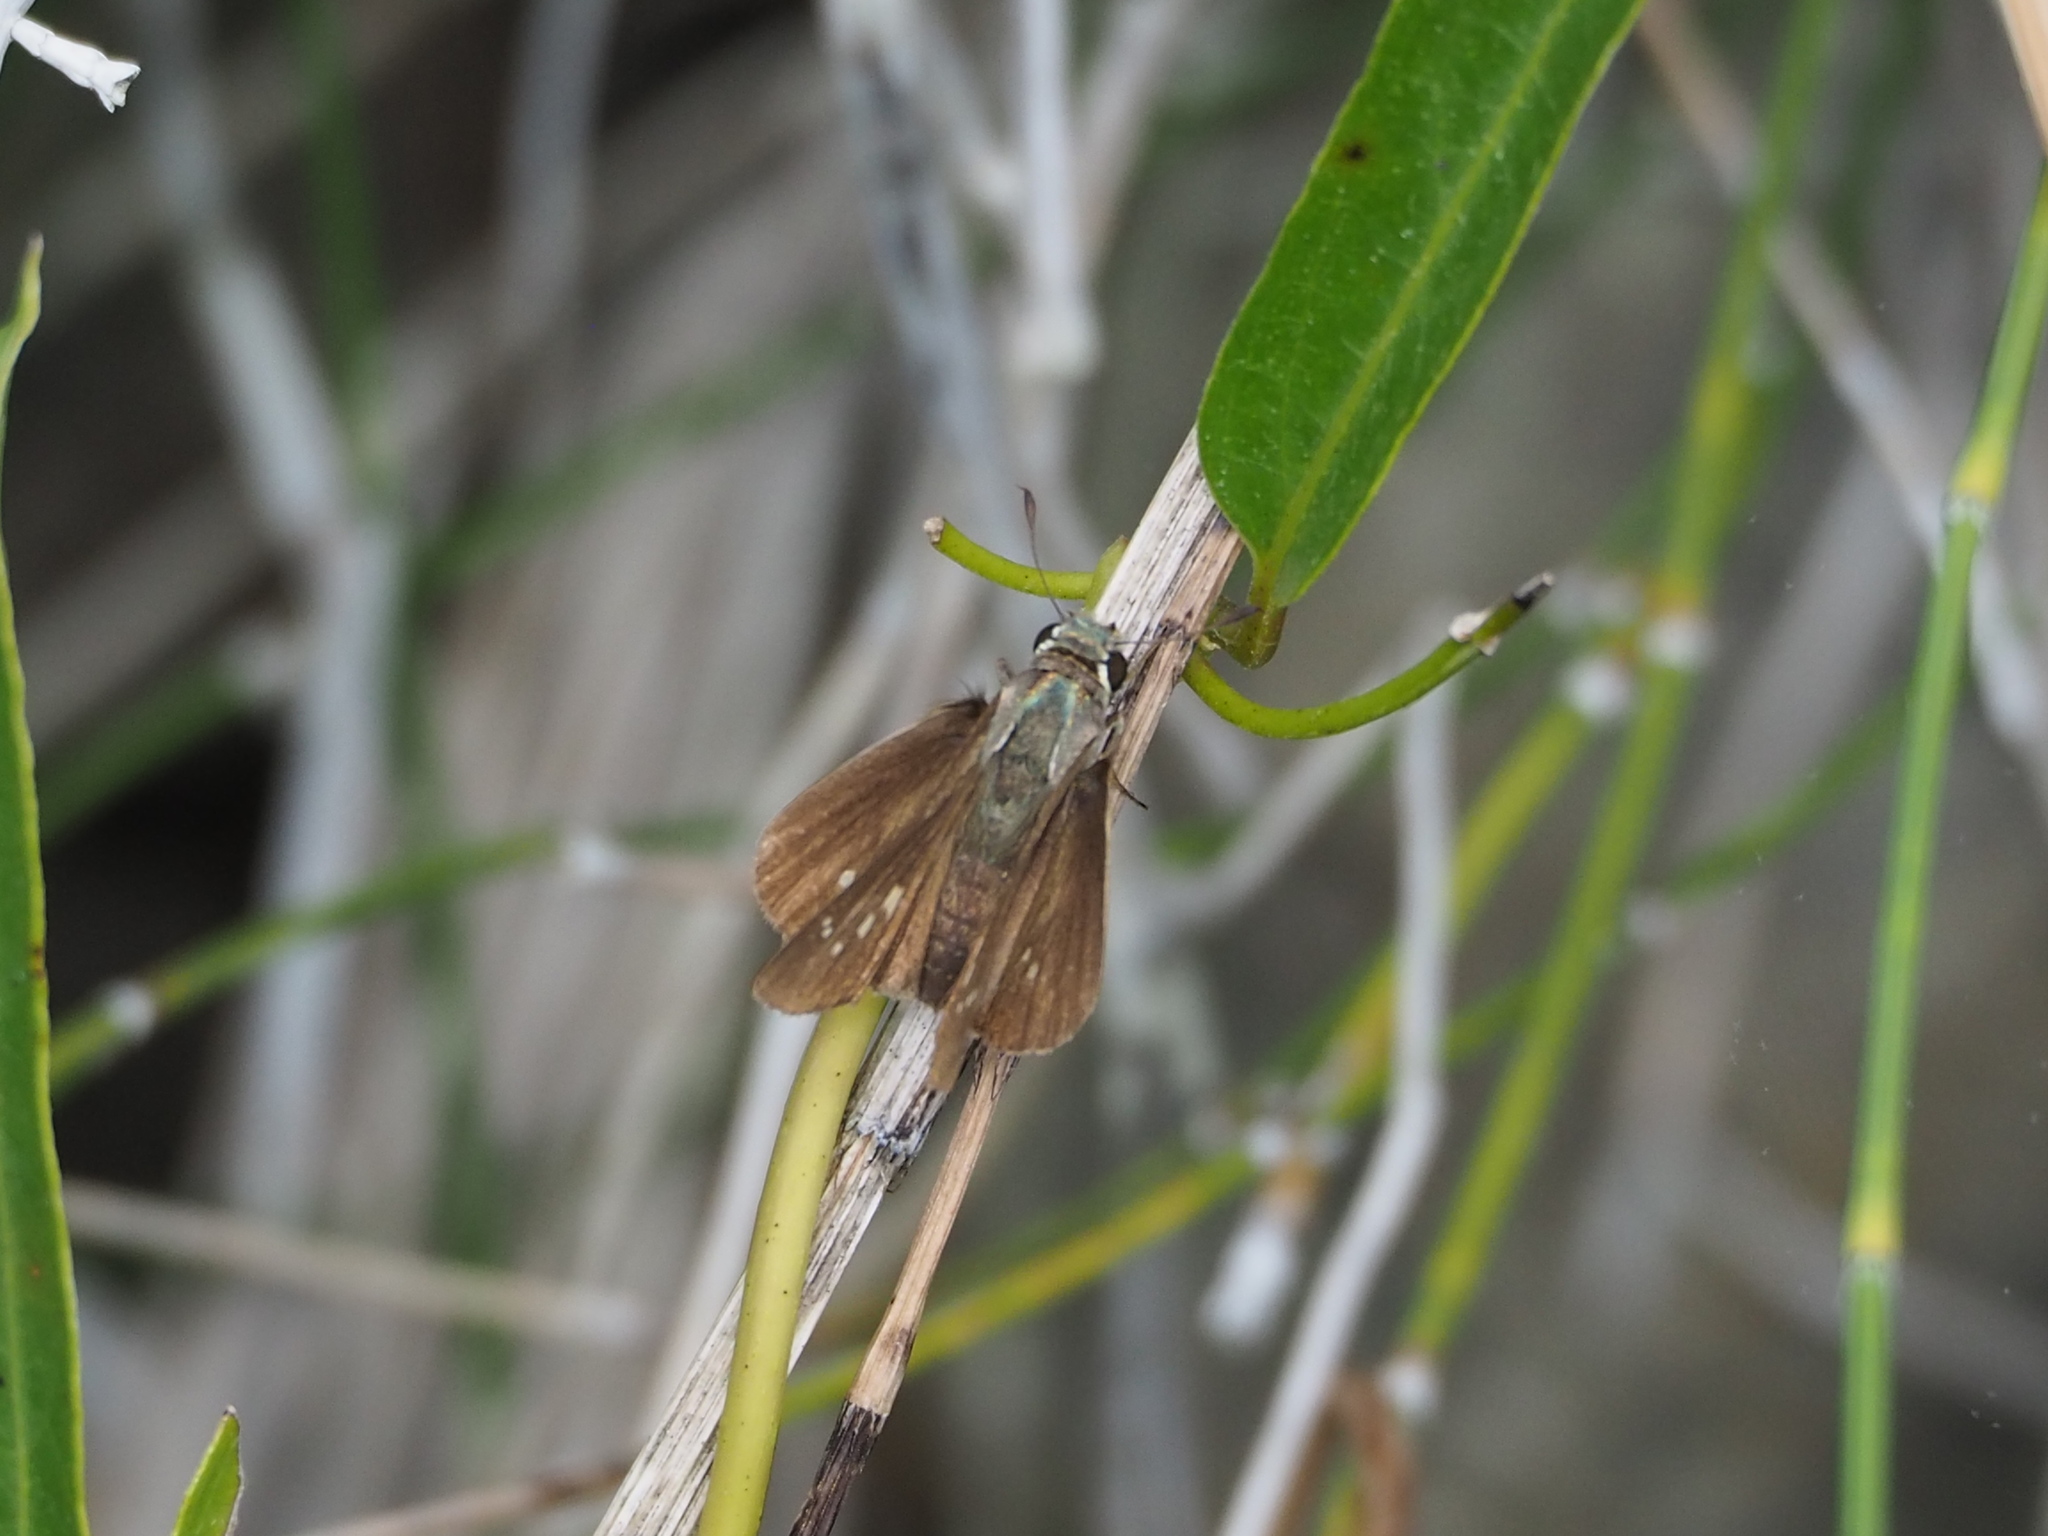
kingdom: Animalia
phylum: Arthropoda
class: Insecta
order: Lepidoptera
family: Hesperiidae
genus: Parnara
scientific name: Parnara naso
